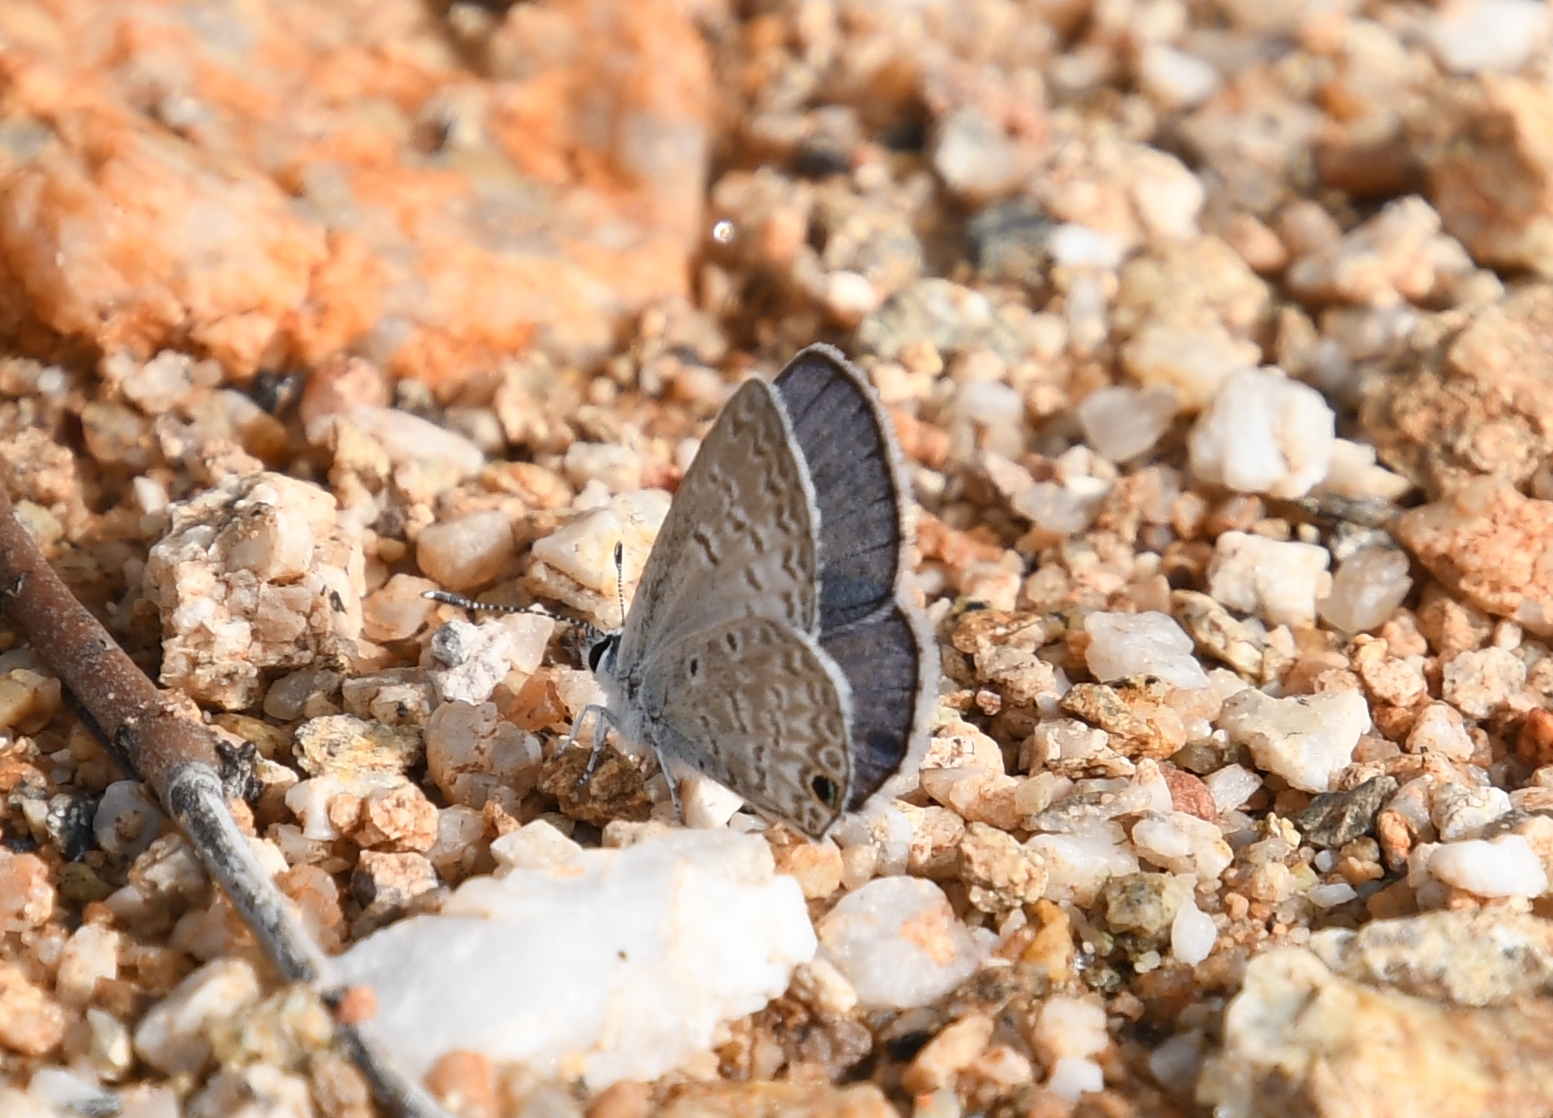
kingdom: Animalia
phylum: Arthropoda
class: Insecta
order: Lepidoptera
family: Lycaenidae
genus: Hemiargus
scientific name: Hemiargus ceraunus
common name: Ceraunus blue
